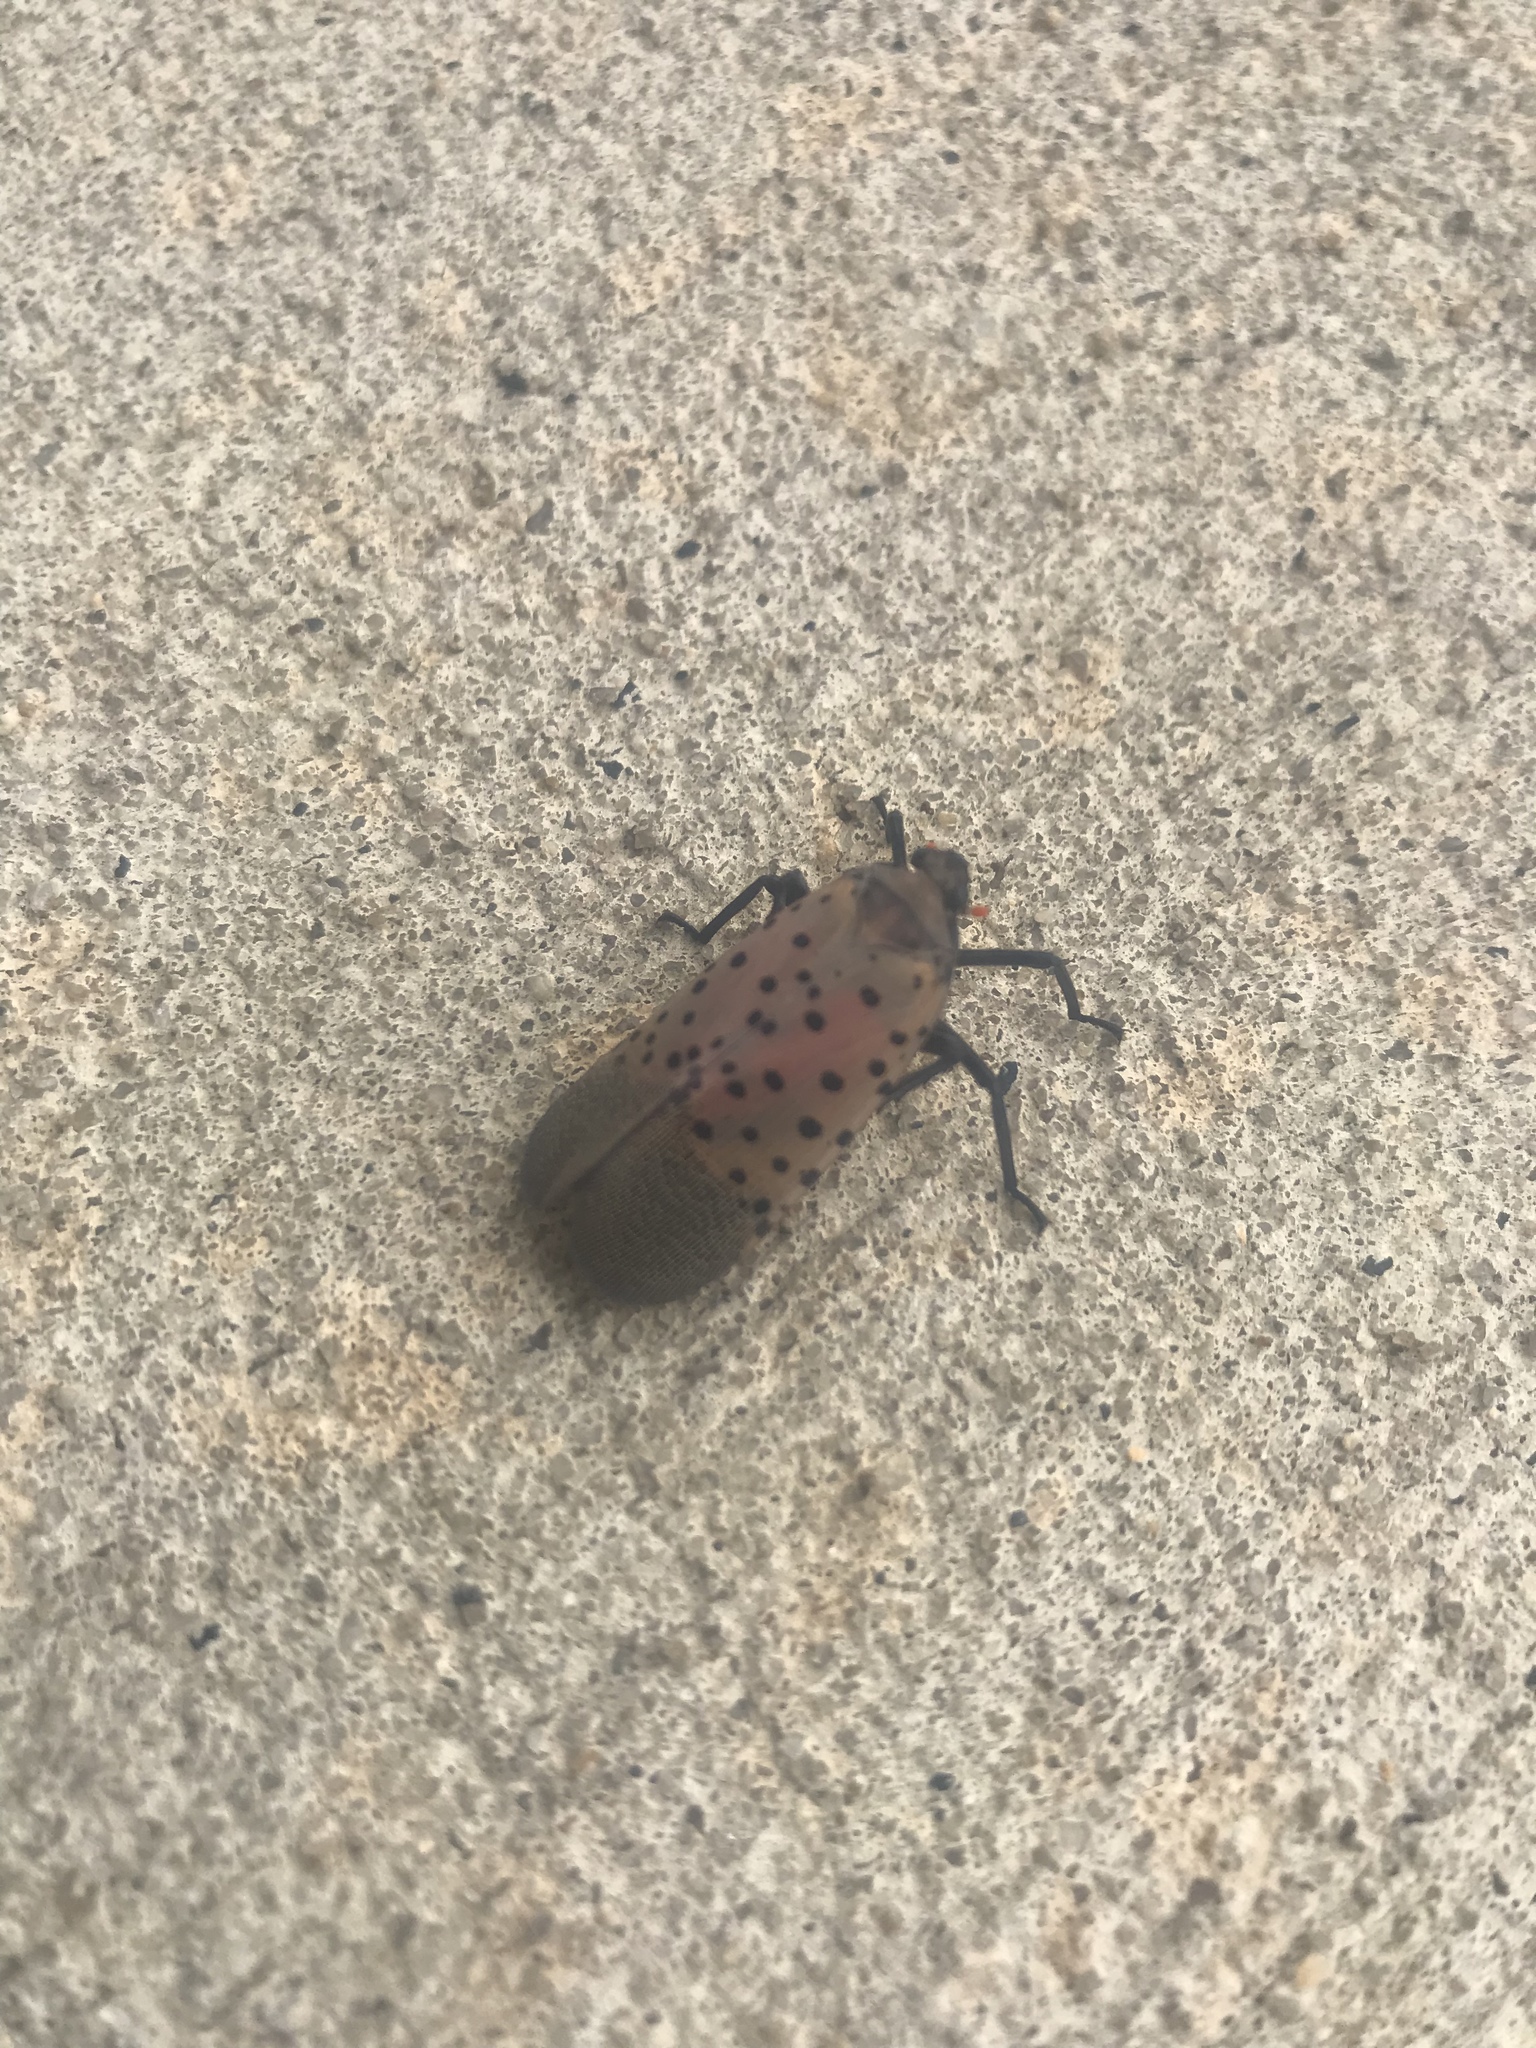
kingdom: Animalia
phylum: Arthropoda
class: Insecta
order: Hemiptera
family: Fulgoridae
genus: Lycorma
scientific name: Lycorma delicatula
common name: Spotted lanternfly
